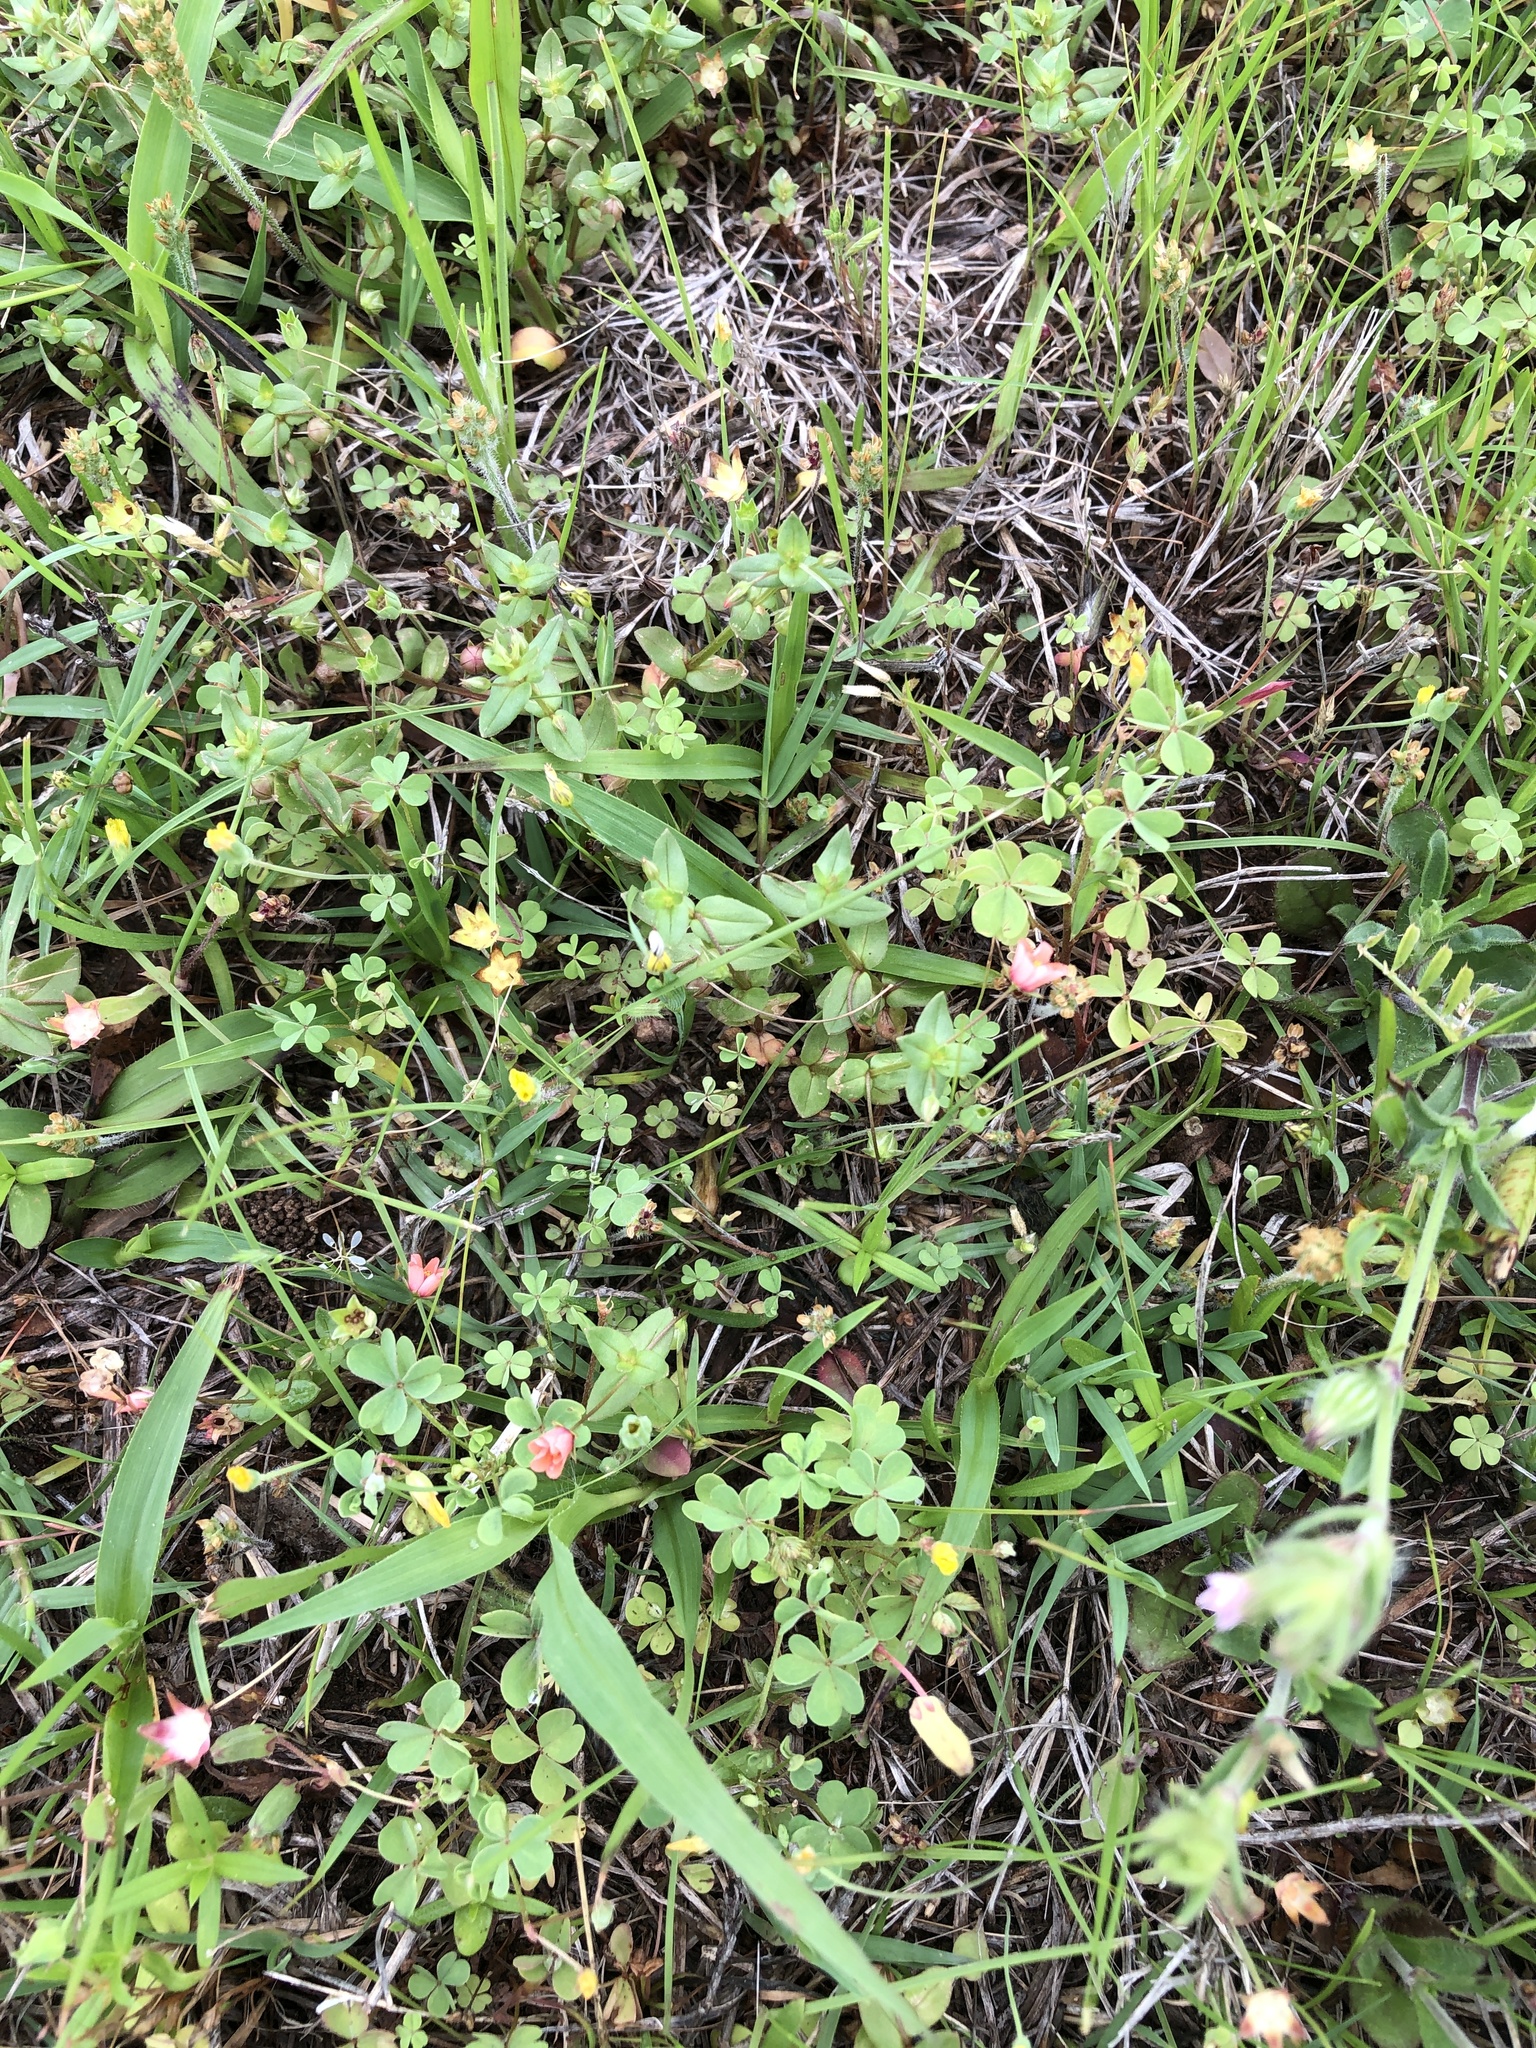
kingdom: Plantae
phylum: Tracheophyta
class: Magnoliopsida
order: Ericales
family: Primulaceae
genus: Lysimachia
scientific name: Lysimachia arvensis
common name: Scarlet pimpernel
